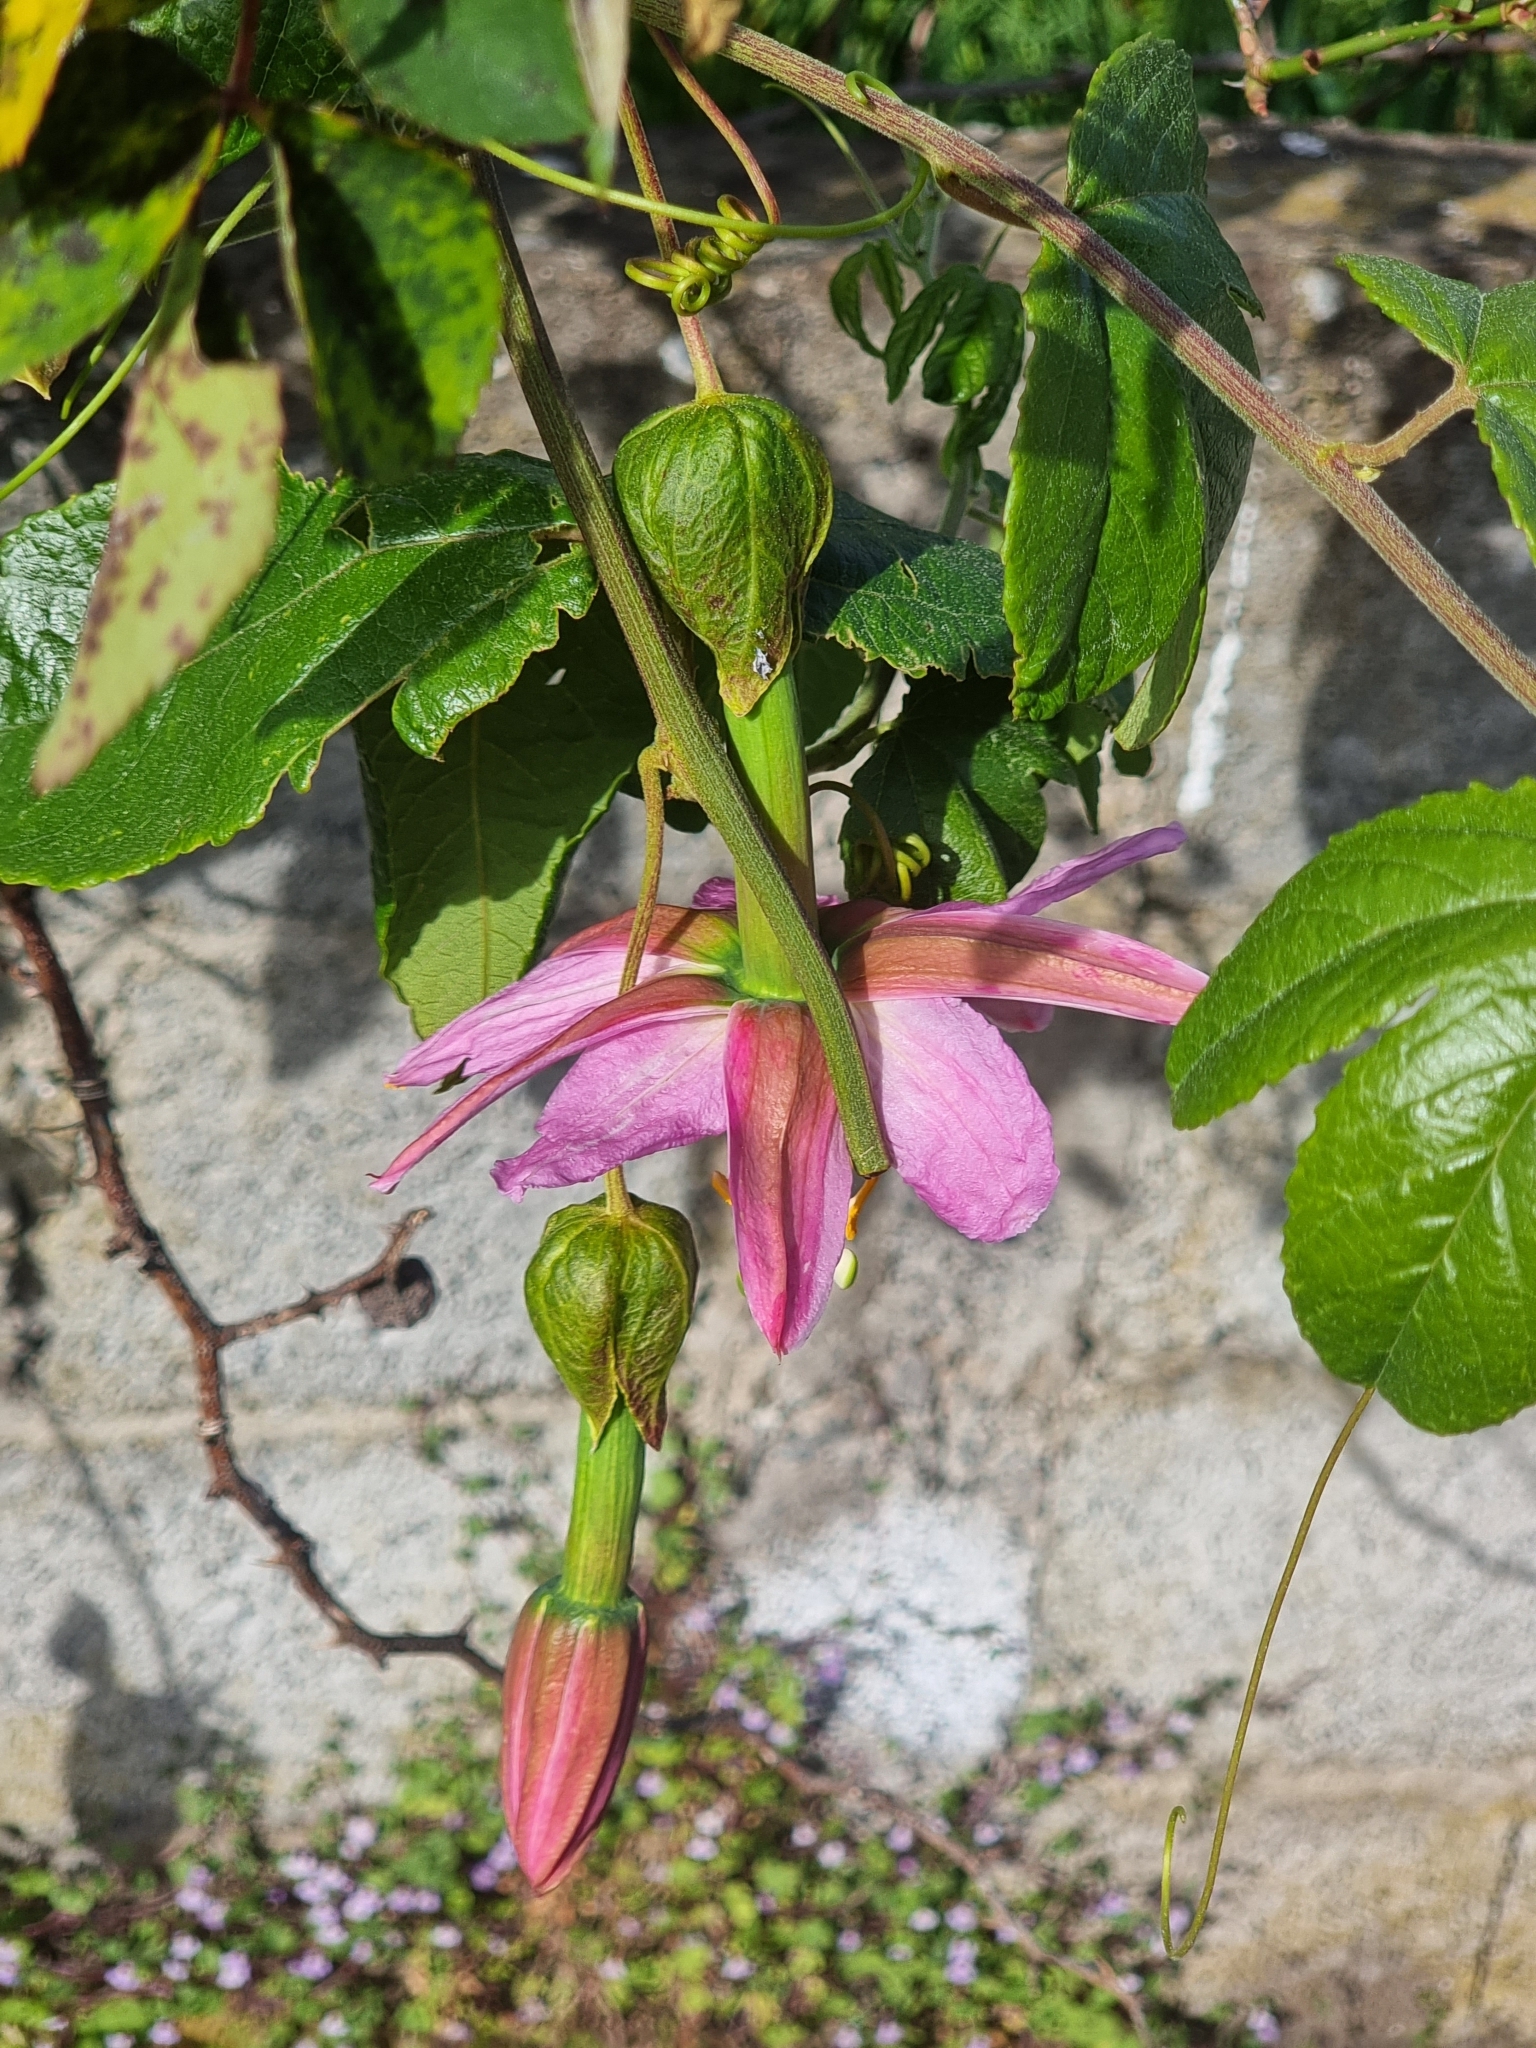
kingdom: Plantae
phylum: Tracheophyta
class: Magnoliopsida
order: Malpighiales
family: Passifloraceae
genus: Passiflora
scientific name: Passiflora tarminiana
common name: Banana poka
